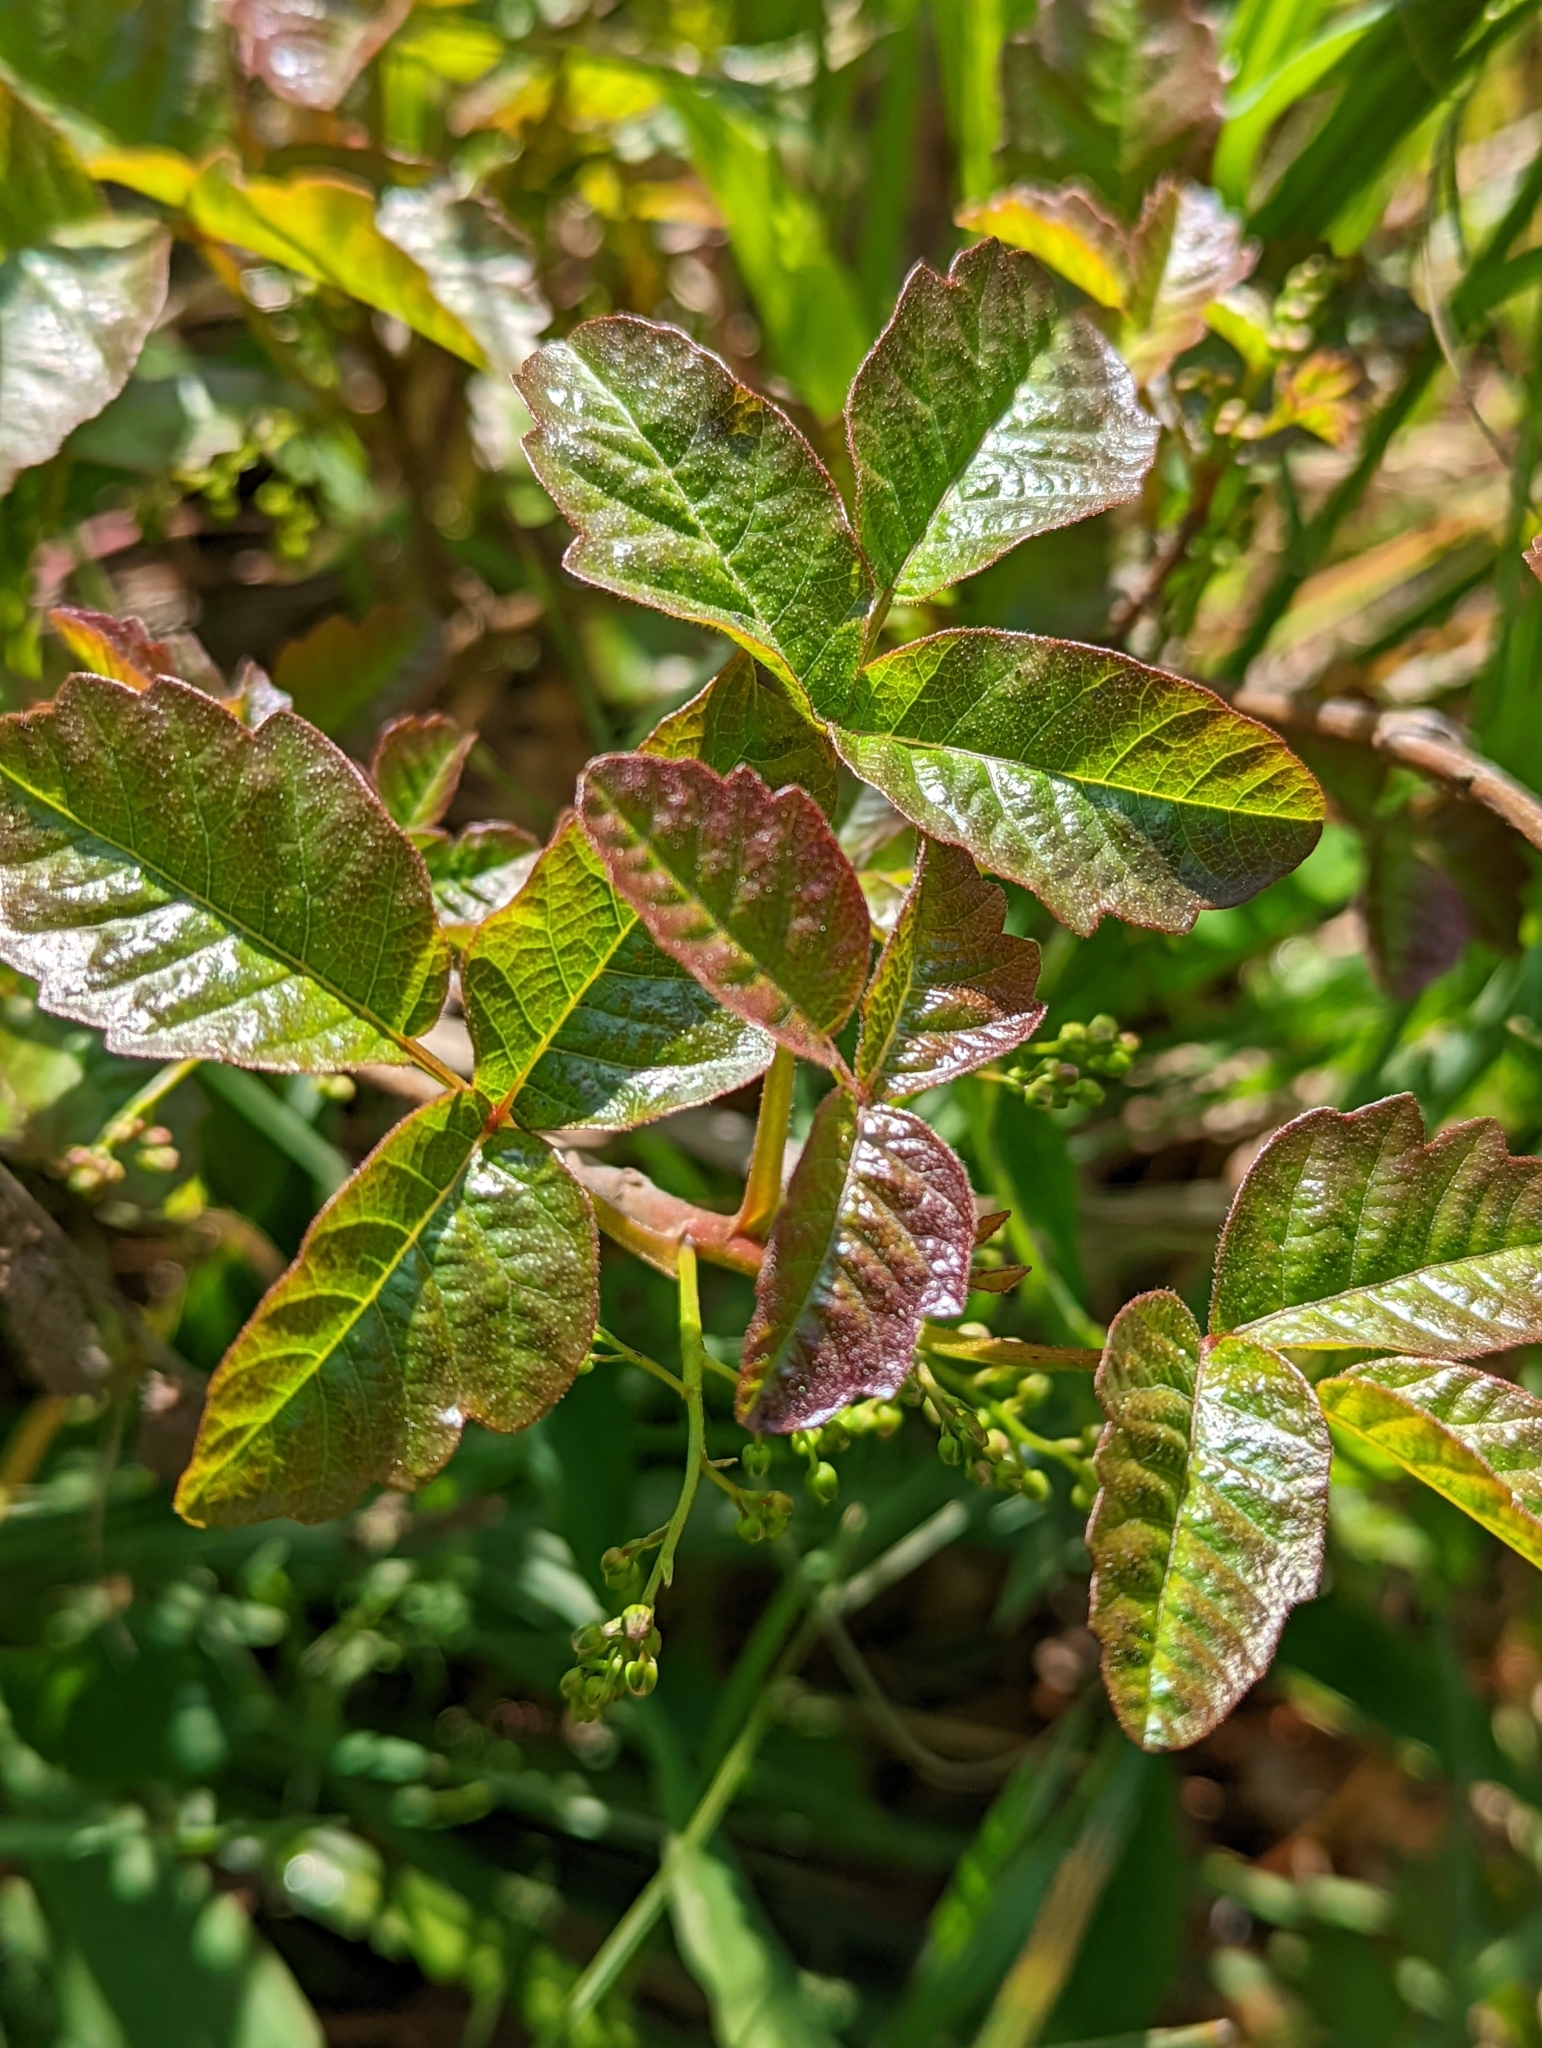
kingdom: Plantae
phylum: Tracheophyta
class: Magnoliopsida
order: Sapindales
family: Anacardiaceae
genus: Toxicodendron
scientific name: Toxicodendron diversilobum
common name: Pacific poison-oak
